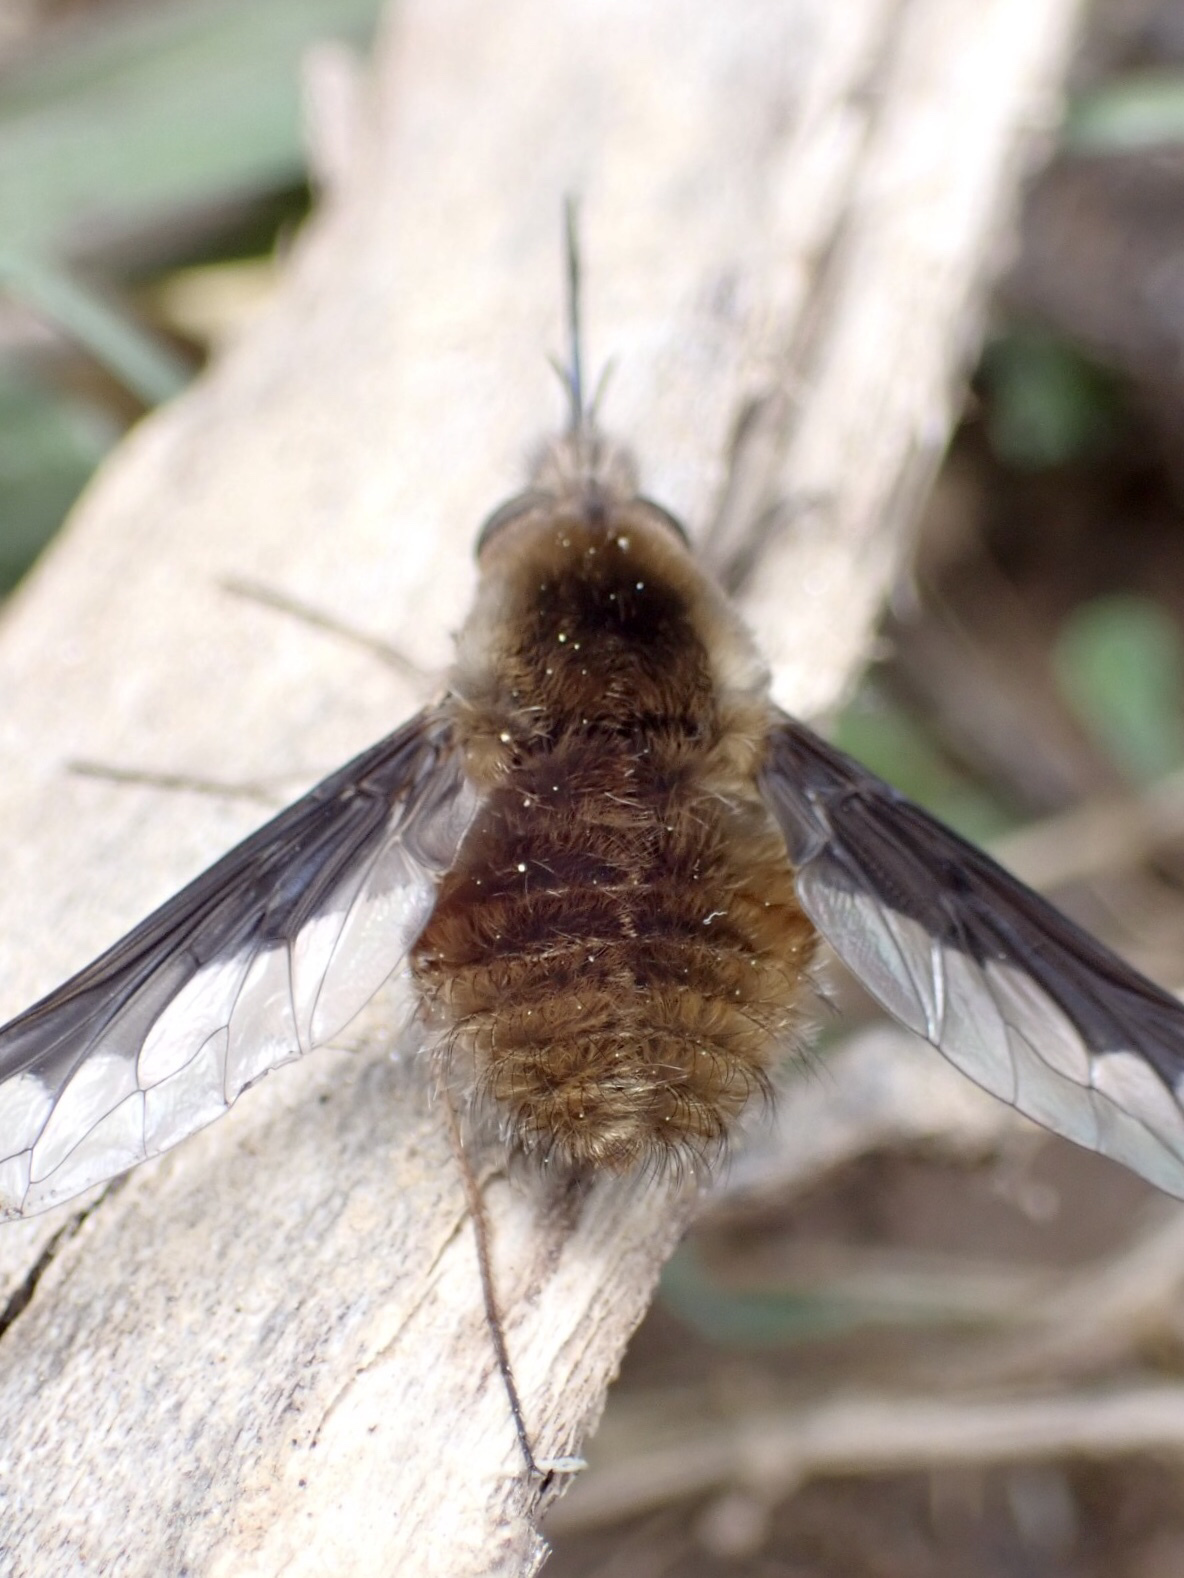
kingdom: Animalia
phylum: Arthropoda
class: Insecta
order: Diptera
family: Bombyliidae
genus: Bombylius
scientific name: Bombylius major
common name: Bee fly
